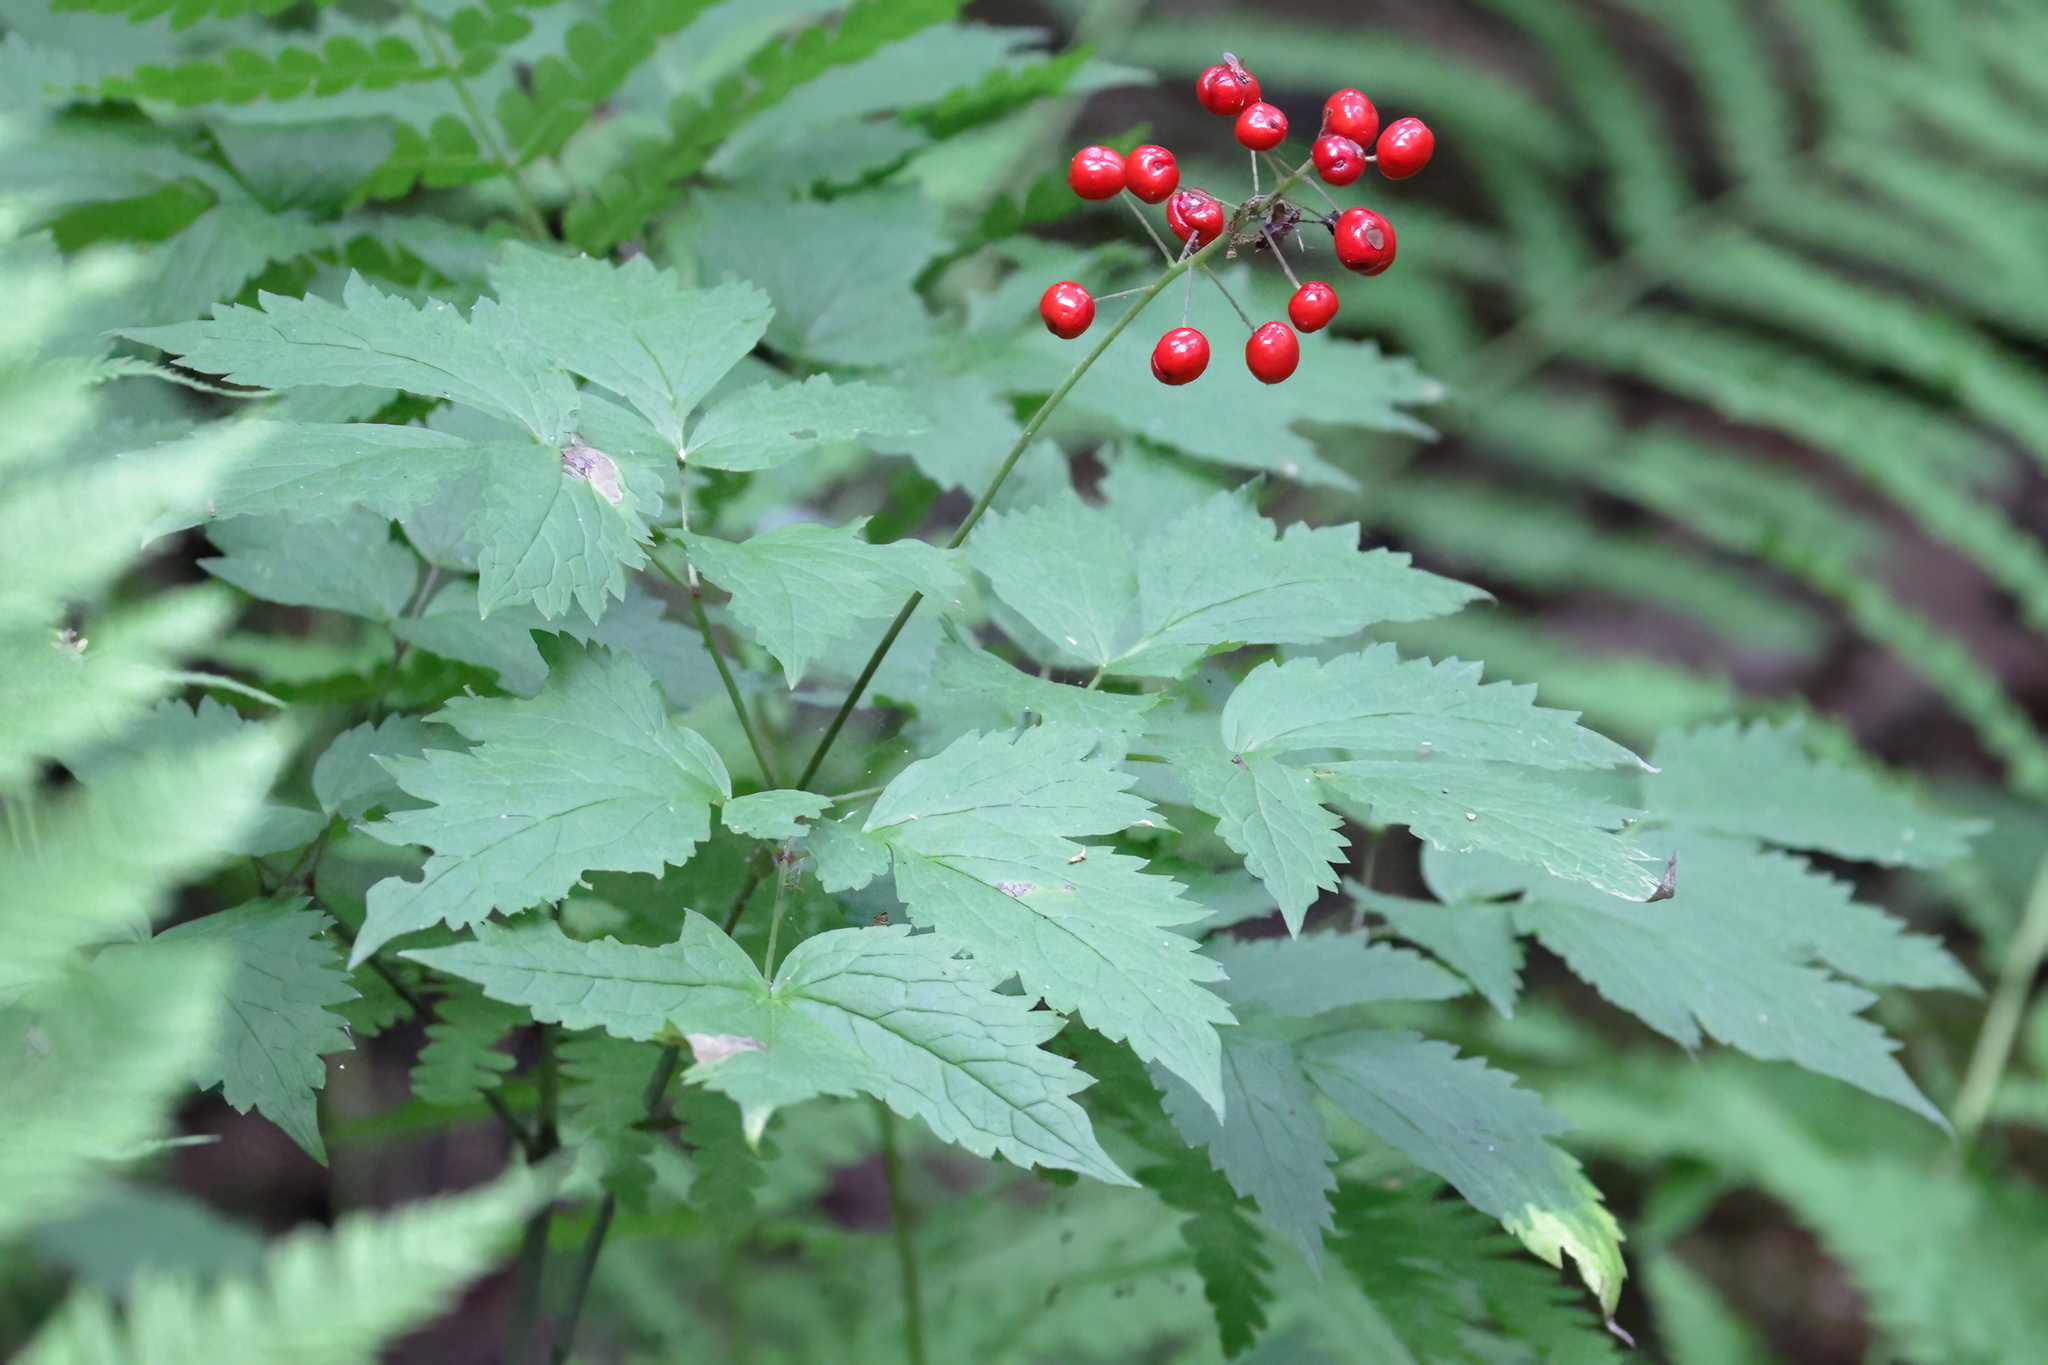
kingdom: Plantae
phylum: Tracheophyta
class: Magnoliopsida
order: Ranunculales
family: Ranunculaceae
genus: Actaea
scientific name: Actaea rubra
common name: Red baneberry
